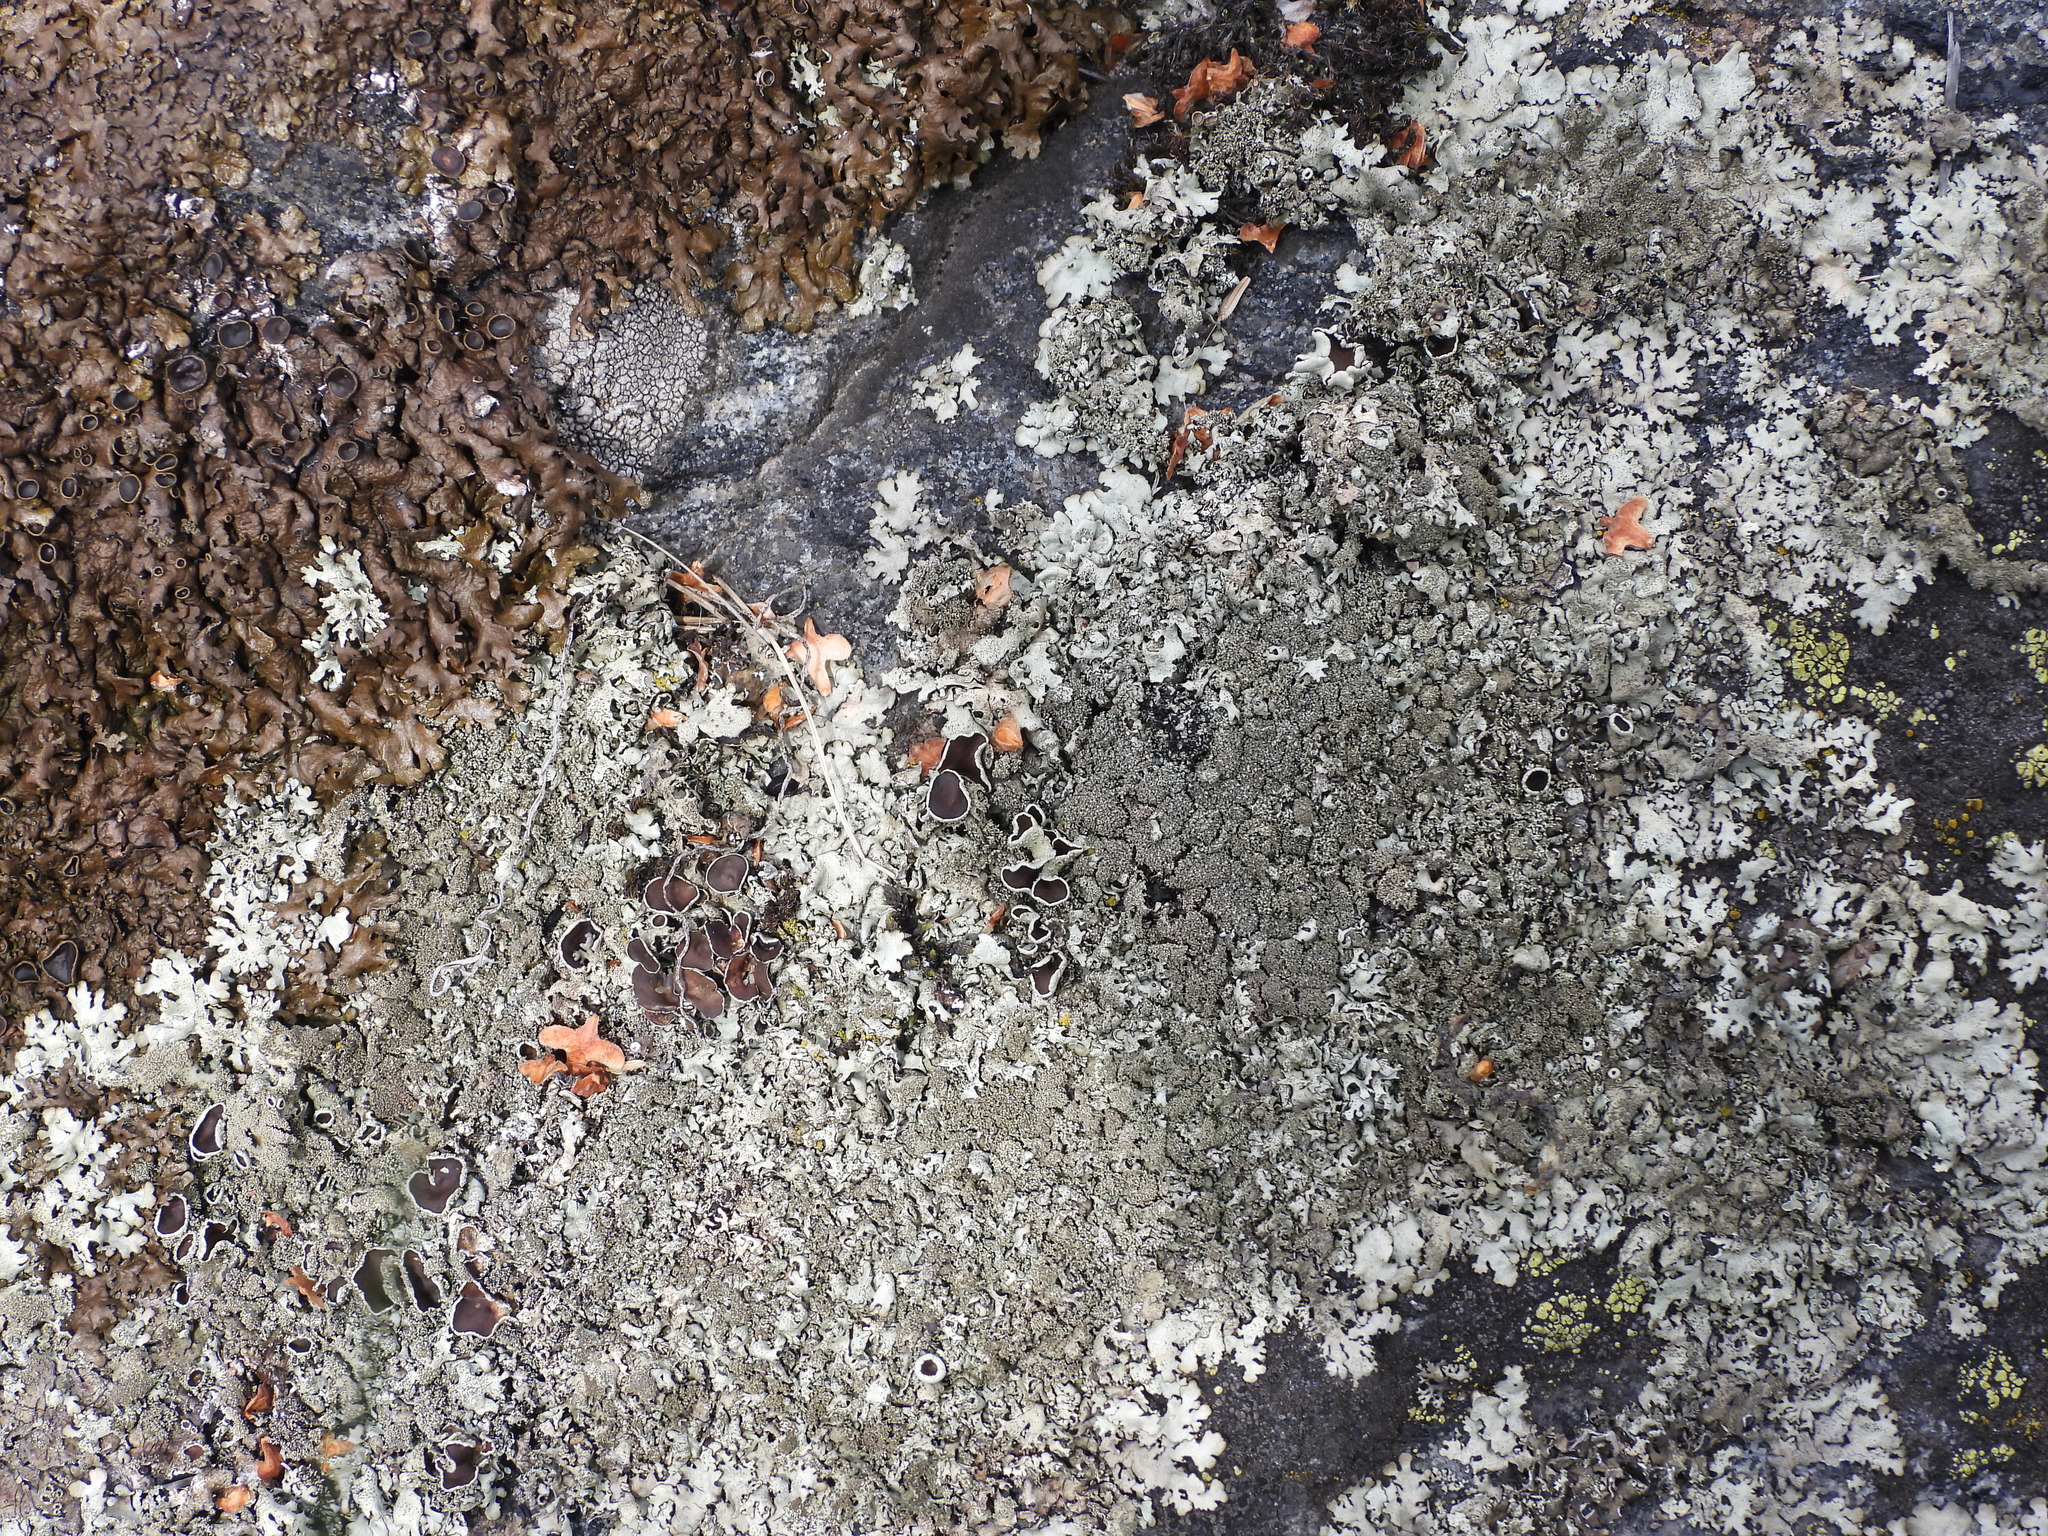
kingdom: Fungi
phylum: Ascomycota
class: Lecanoromycetes
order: Lecanorales
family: Parmeliaceae
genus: Xanthoparmelia
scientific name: Xanthoparmelia conspersa
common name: Peppered rock shield
